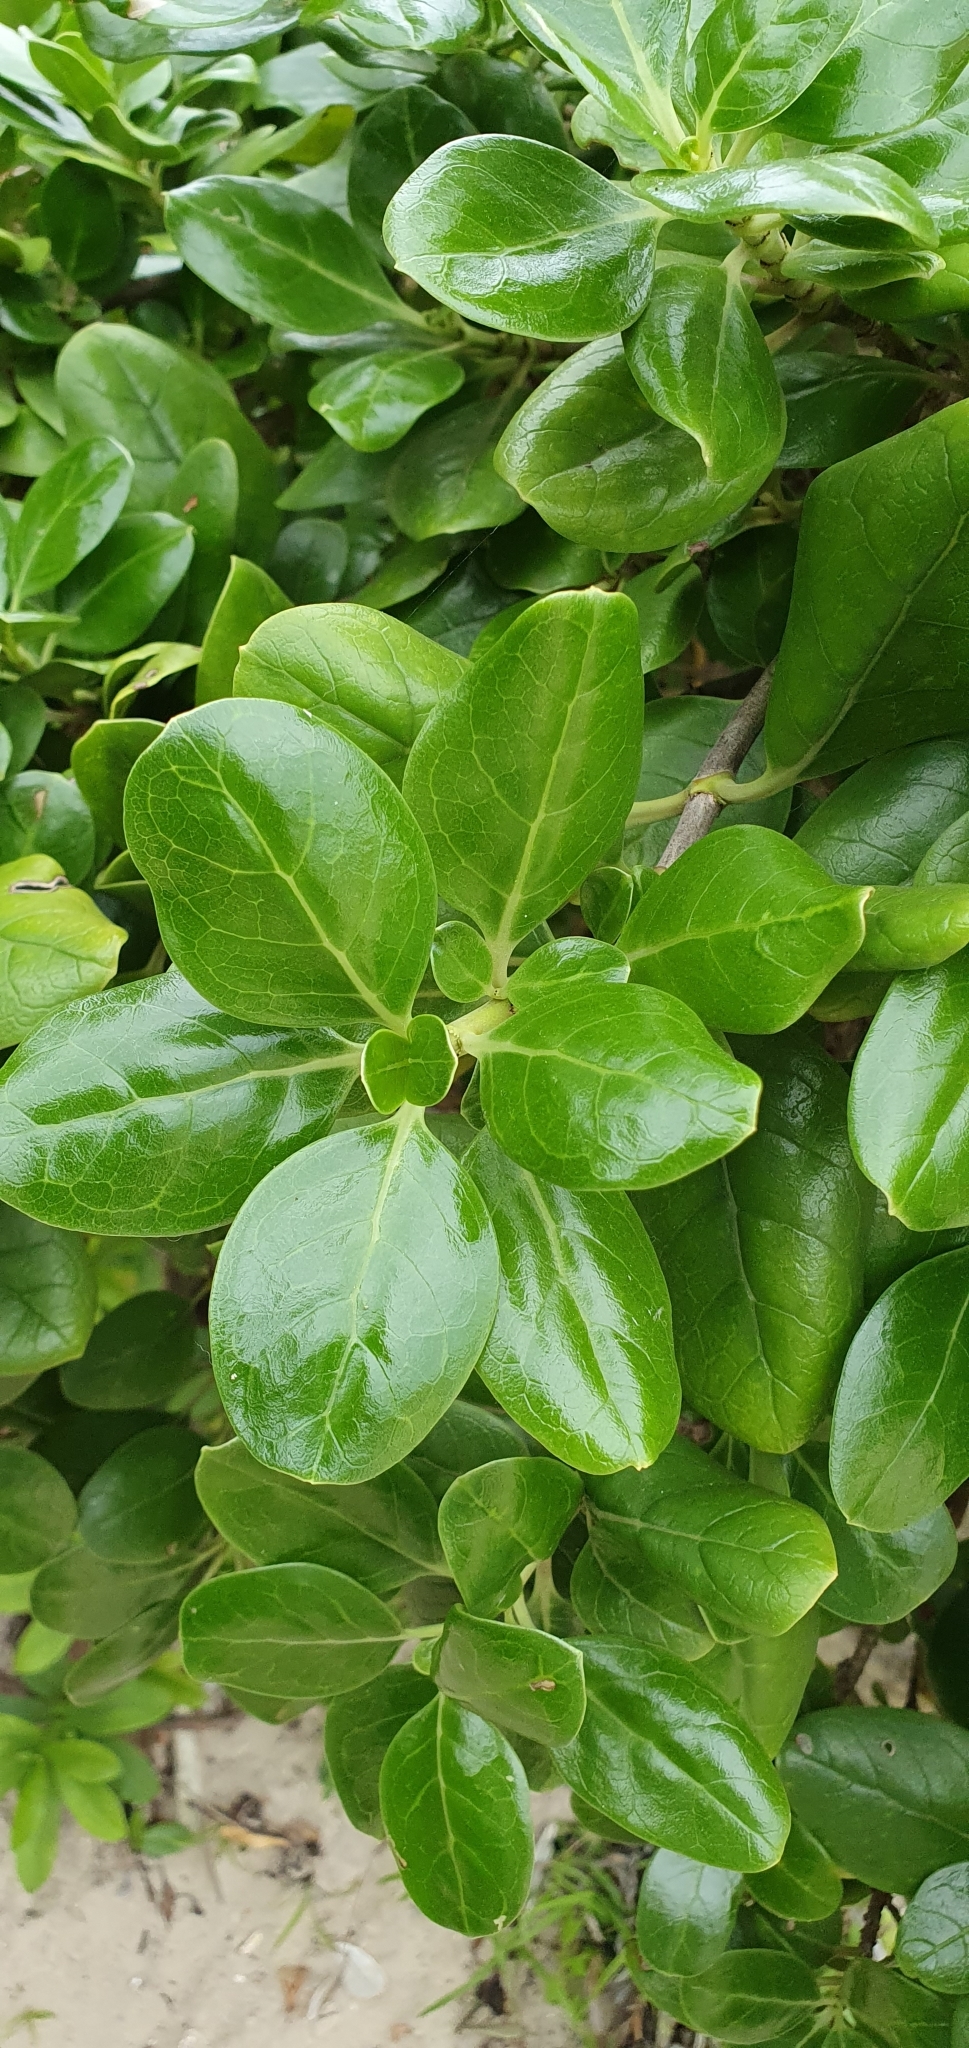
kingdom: Plantae
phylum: Tracheophyta
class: Magnoliopsida
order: Gentianales
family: Rubiaceae
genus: Coprosma
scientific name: Coprosma repens
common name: Tree bedstraw
